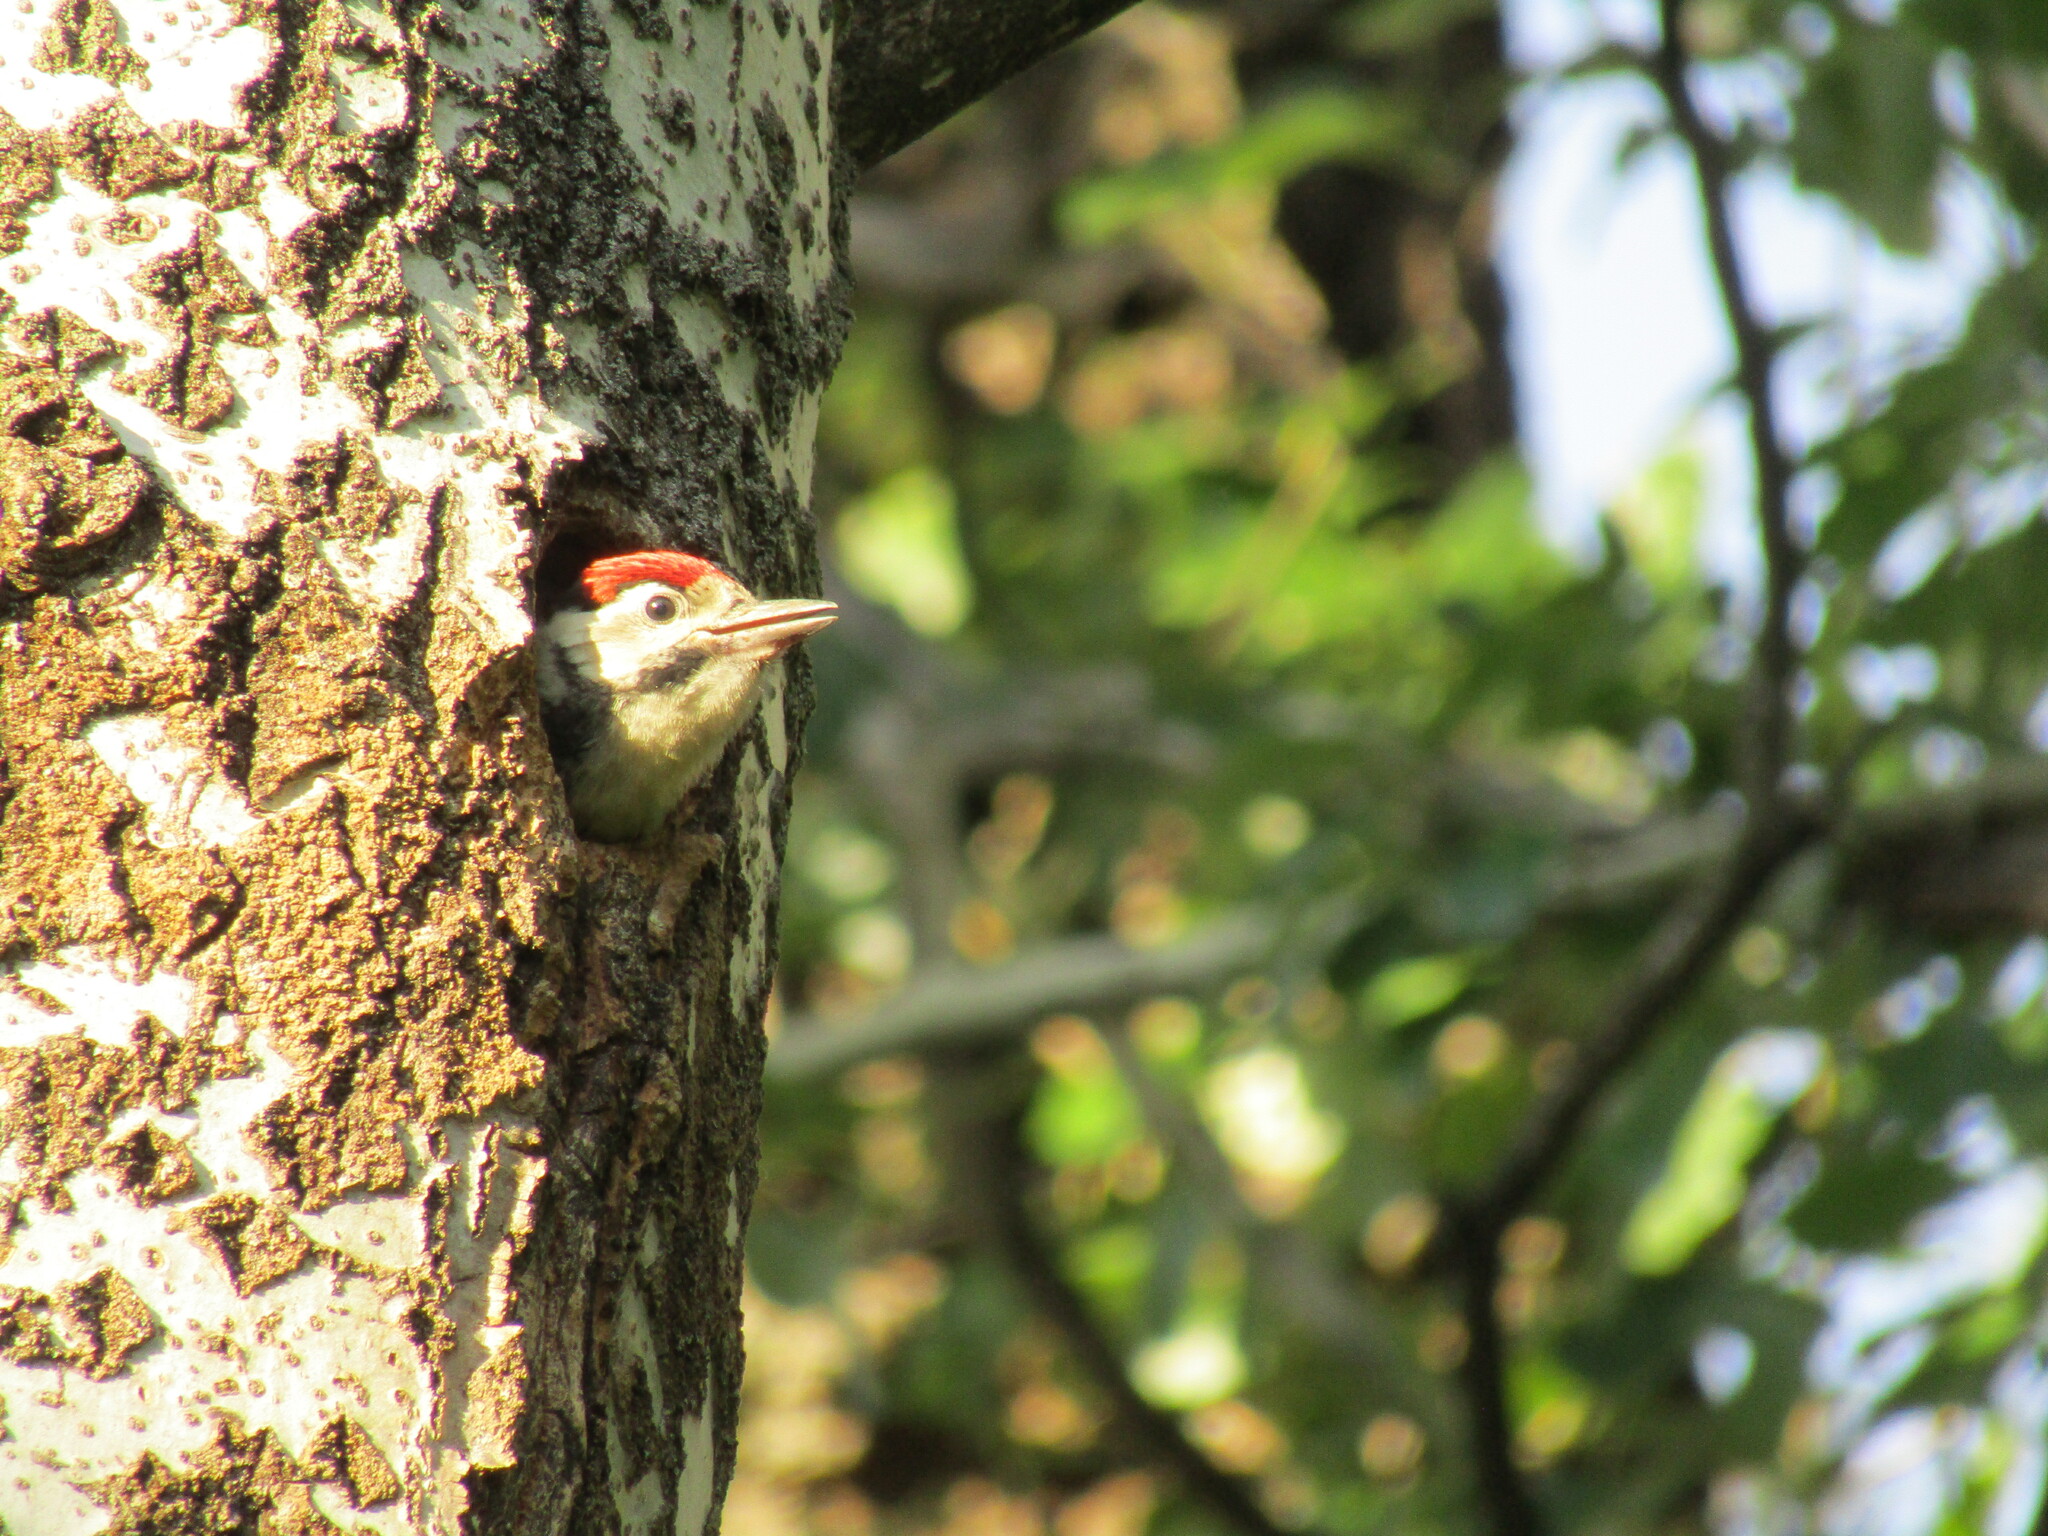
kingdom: Animalia
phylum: Chordata
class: Aves
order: Piciformes
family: Picidae
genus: Dendrocopos
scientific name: Dendrocopos major
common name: Great spotted woodpecker
